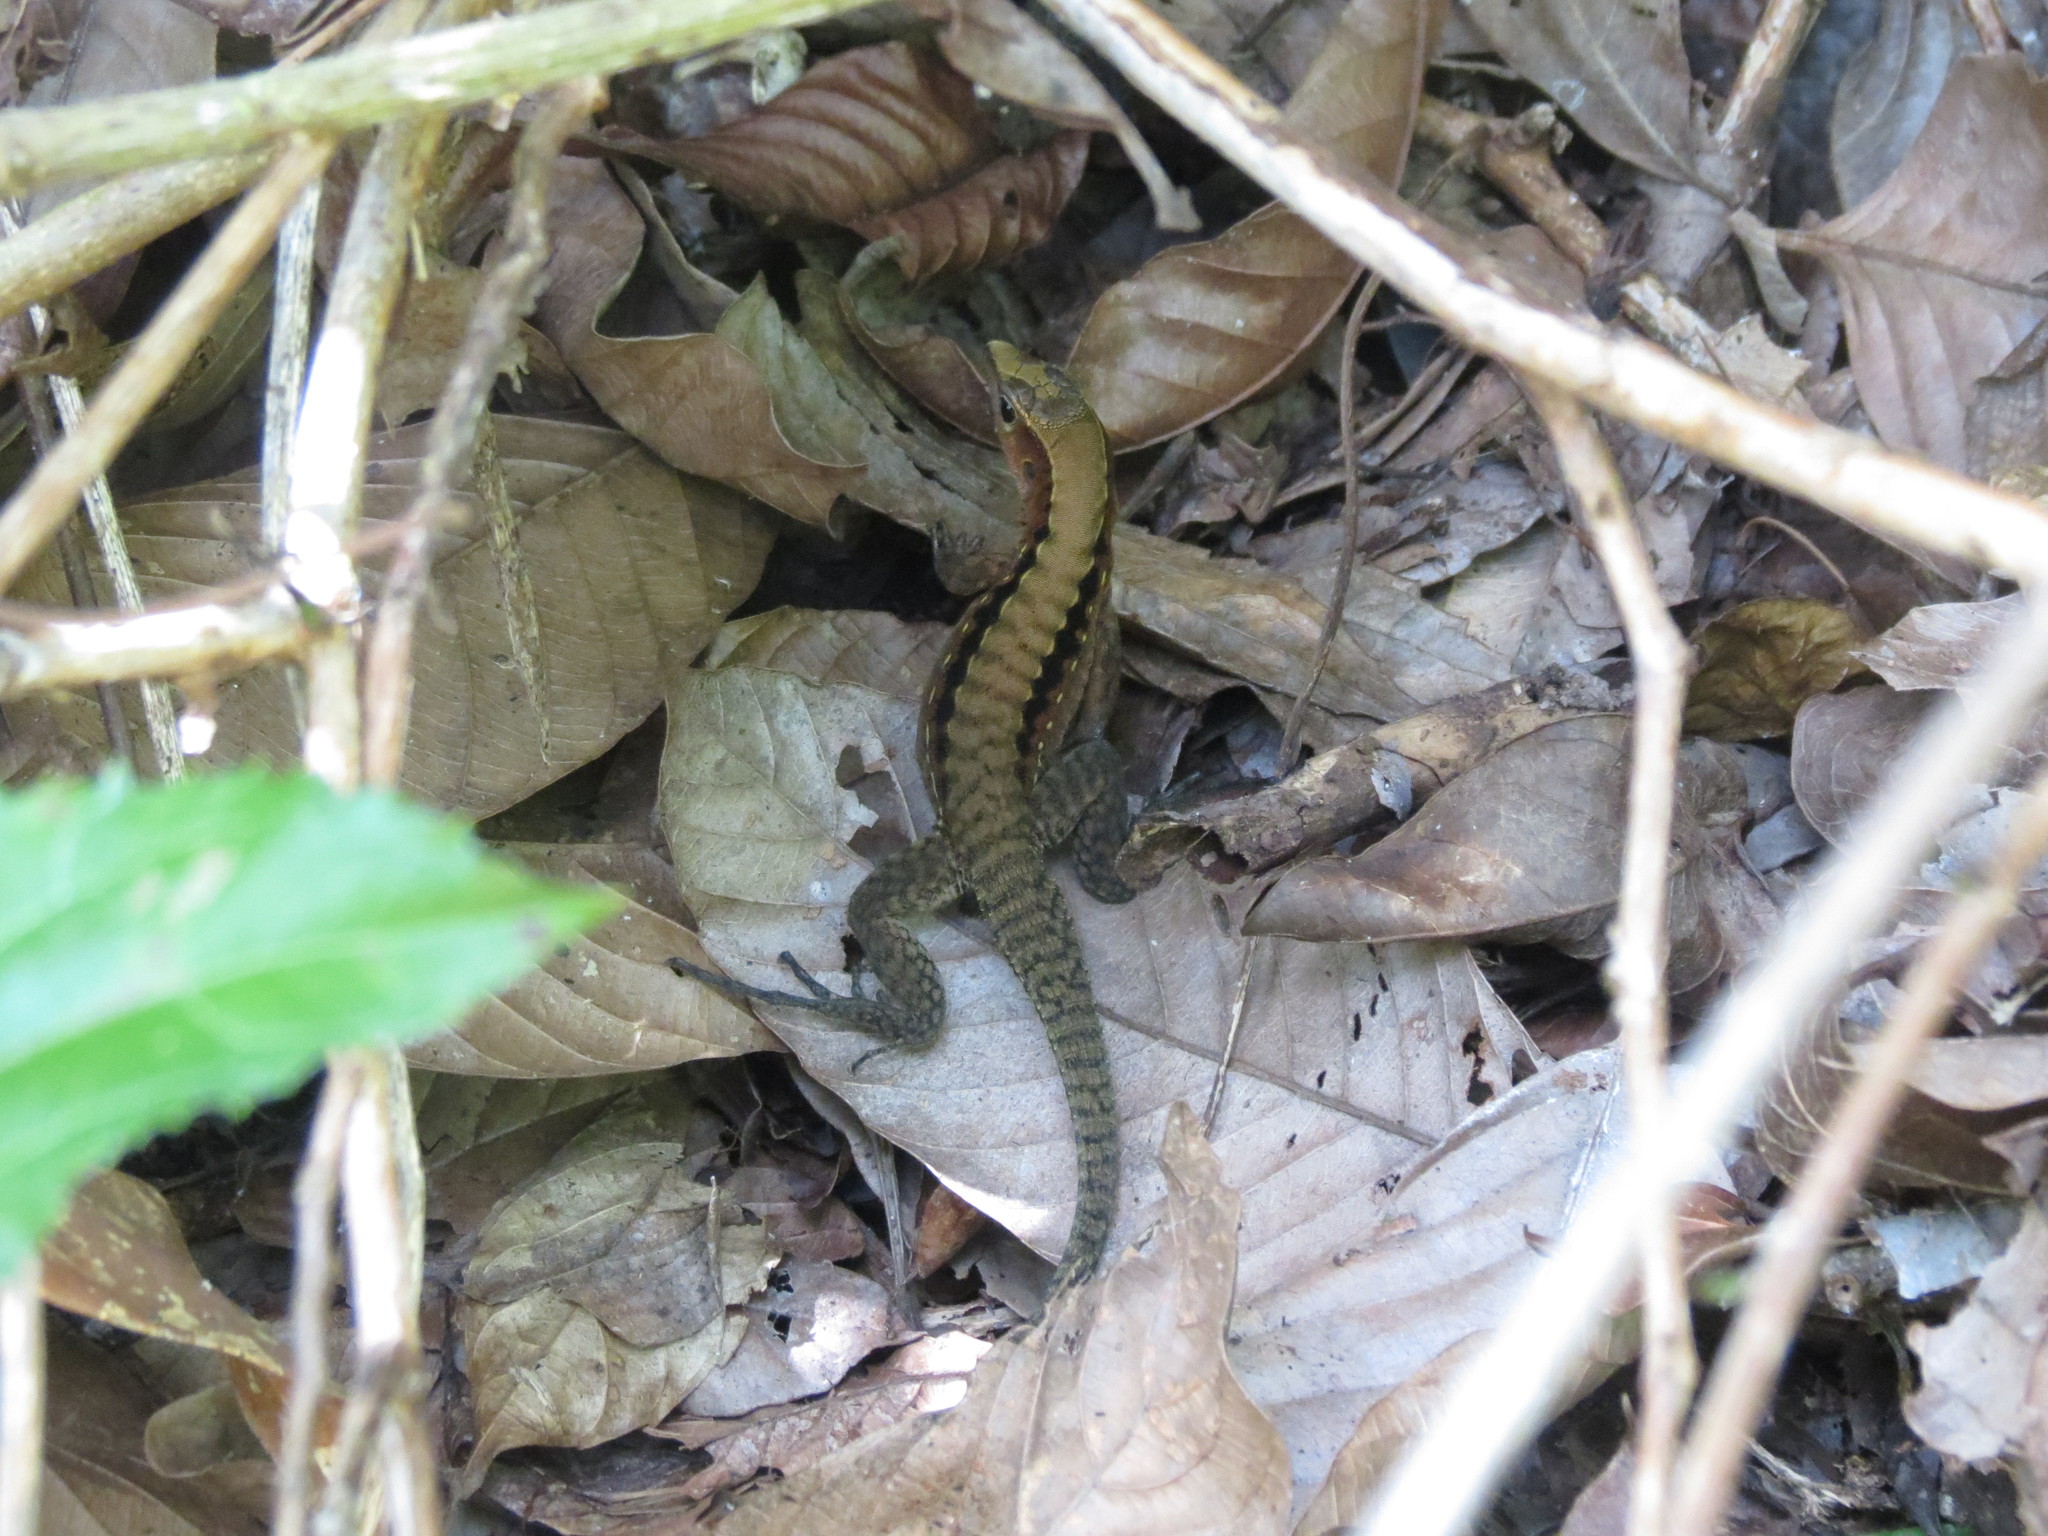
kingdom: Animalia
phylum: Chordata
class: Squamata
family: Teiidae
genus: Holcosus
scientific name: Holcosus leptophrys
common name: Delicate ameiva
